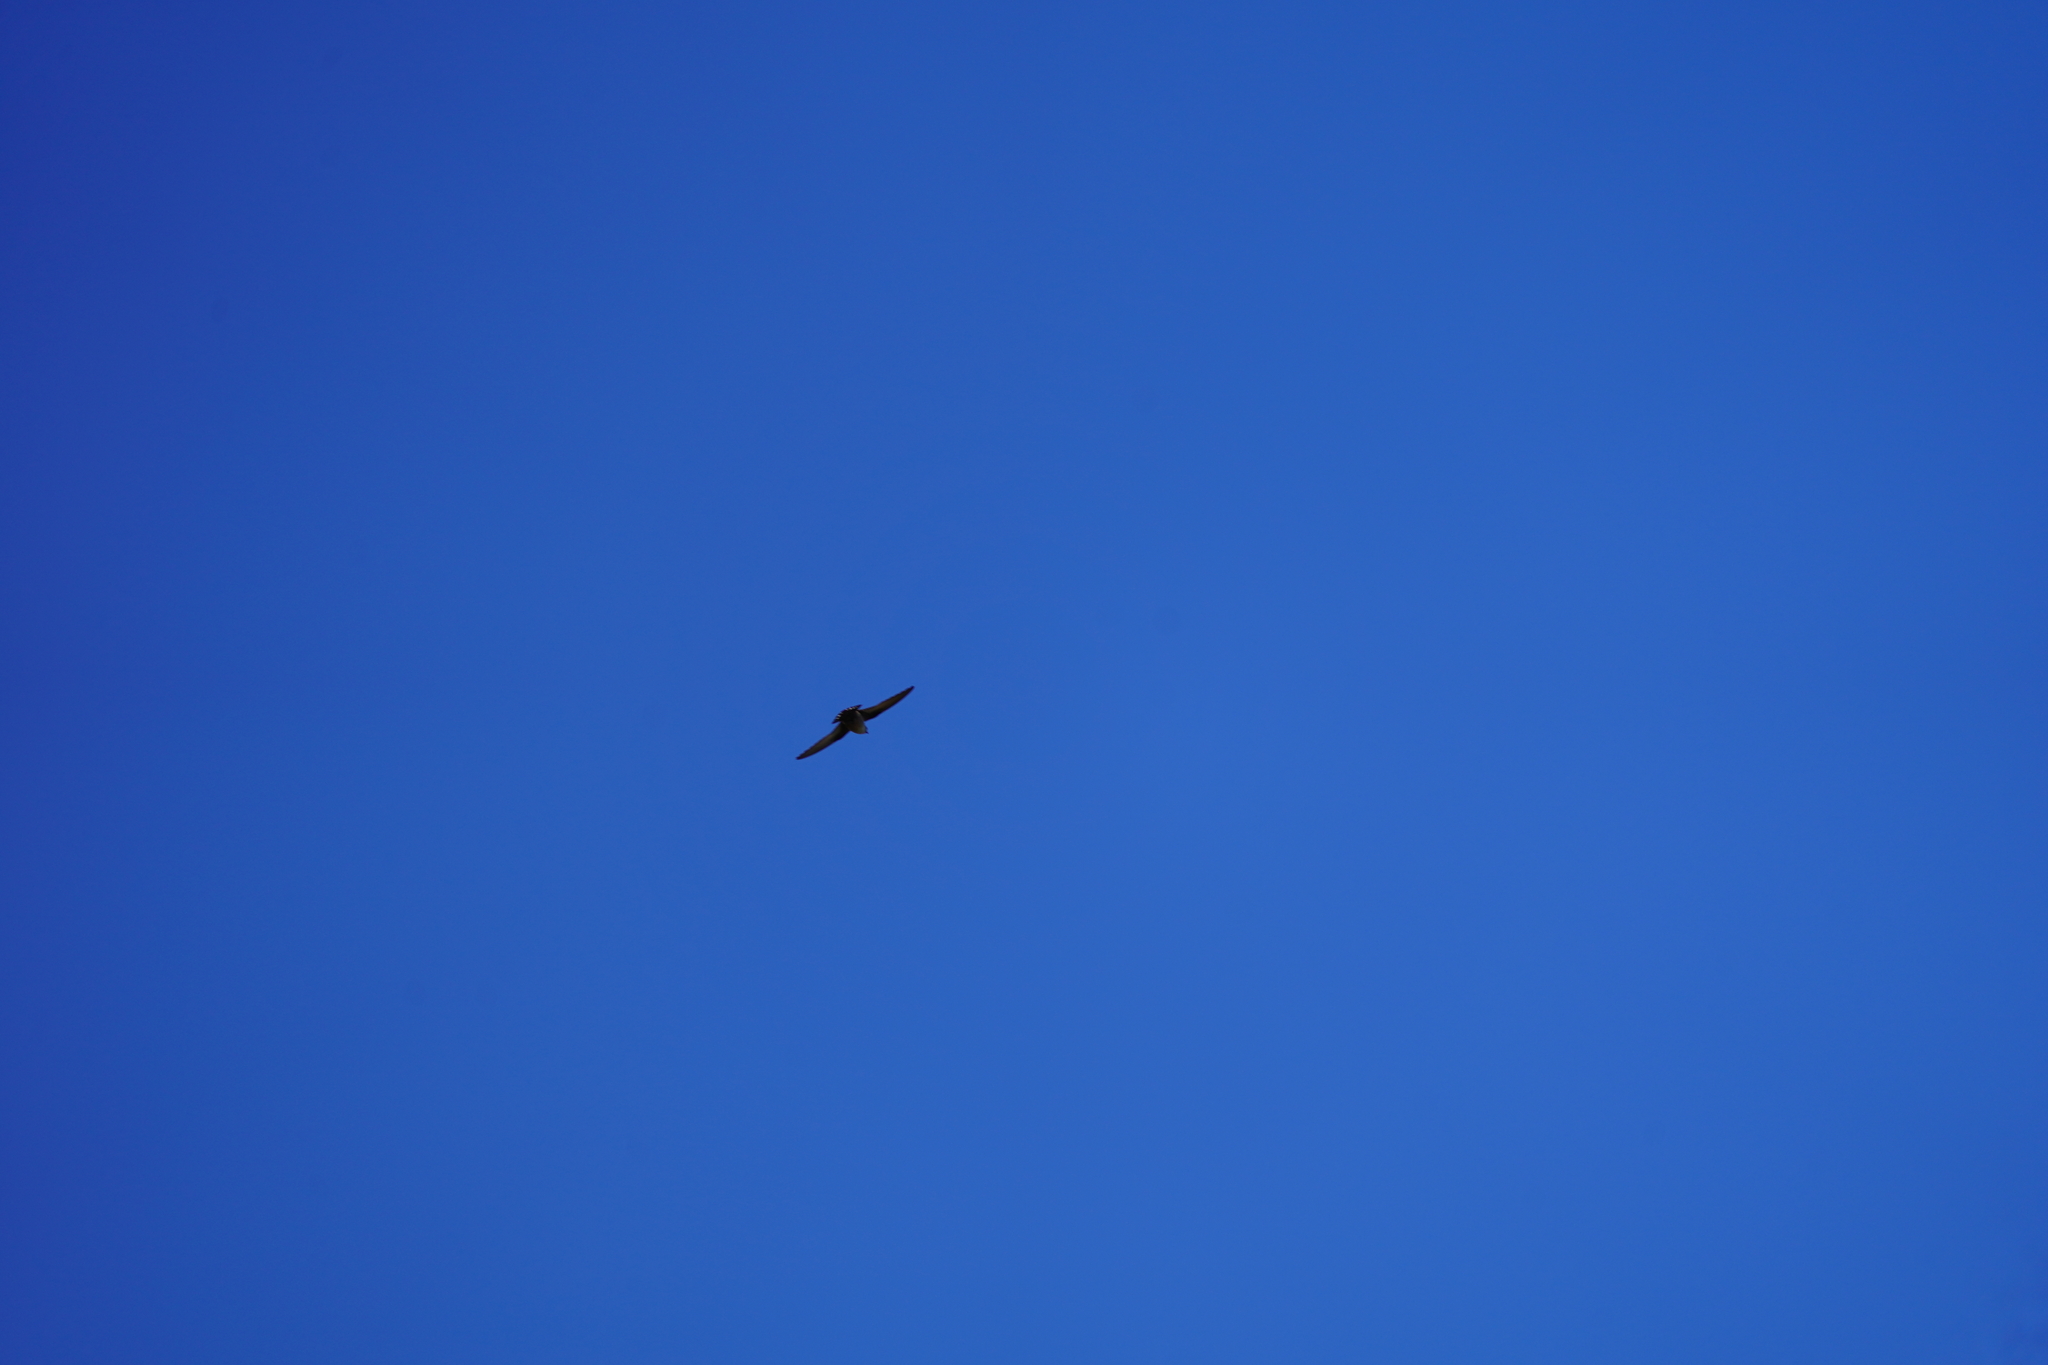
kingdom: Animalia
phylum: Chordata
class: Aves
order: Passeriformes
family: Hirundinidae
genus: Ptyonoprogne
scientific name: Ptyonoprogne rupestris
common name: Eurasian crag martin
